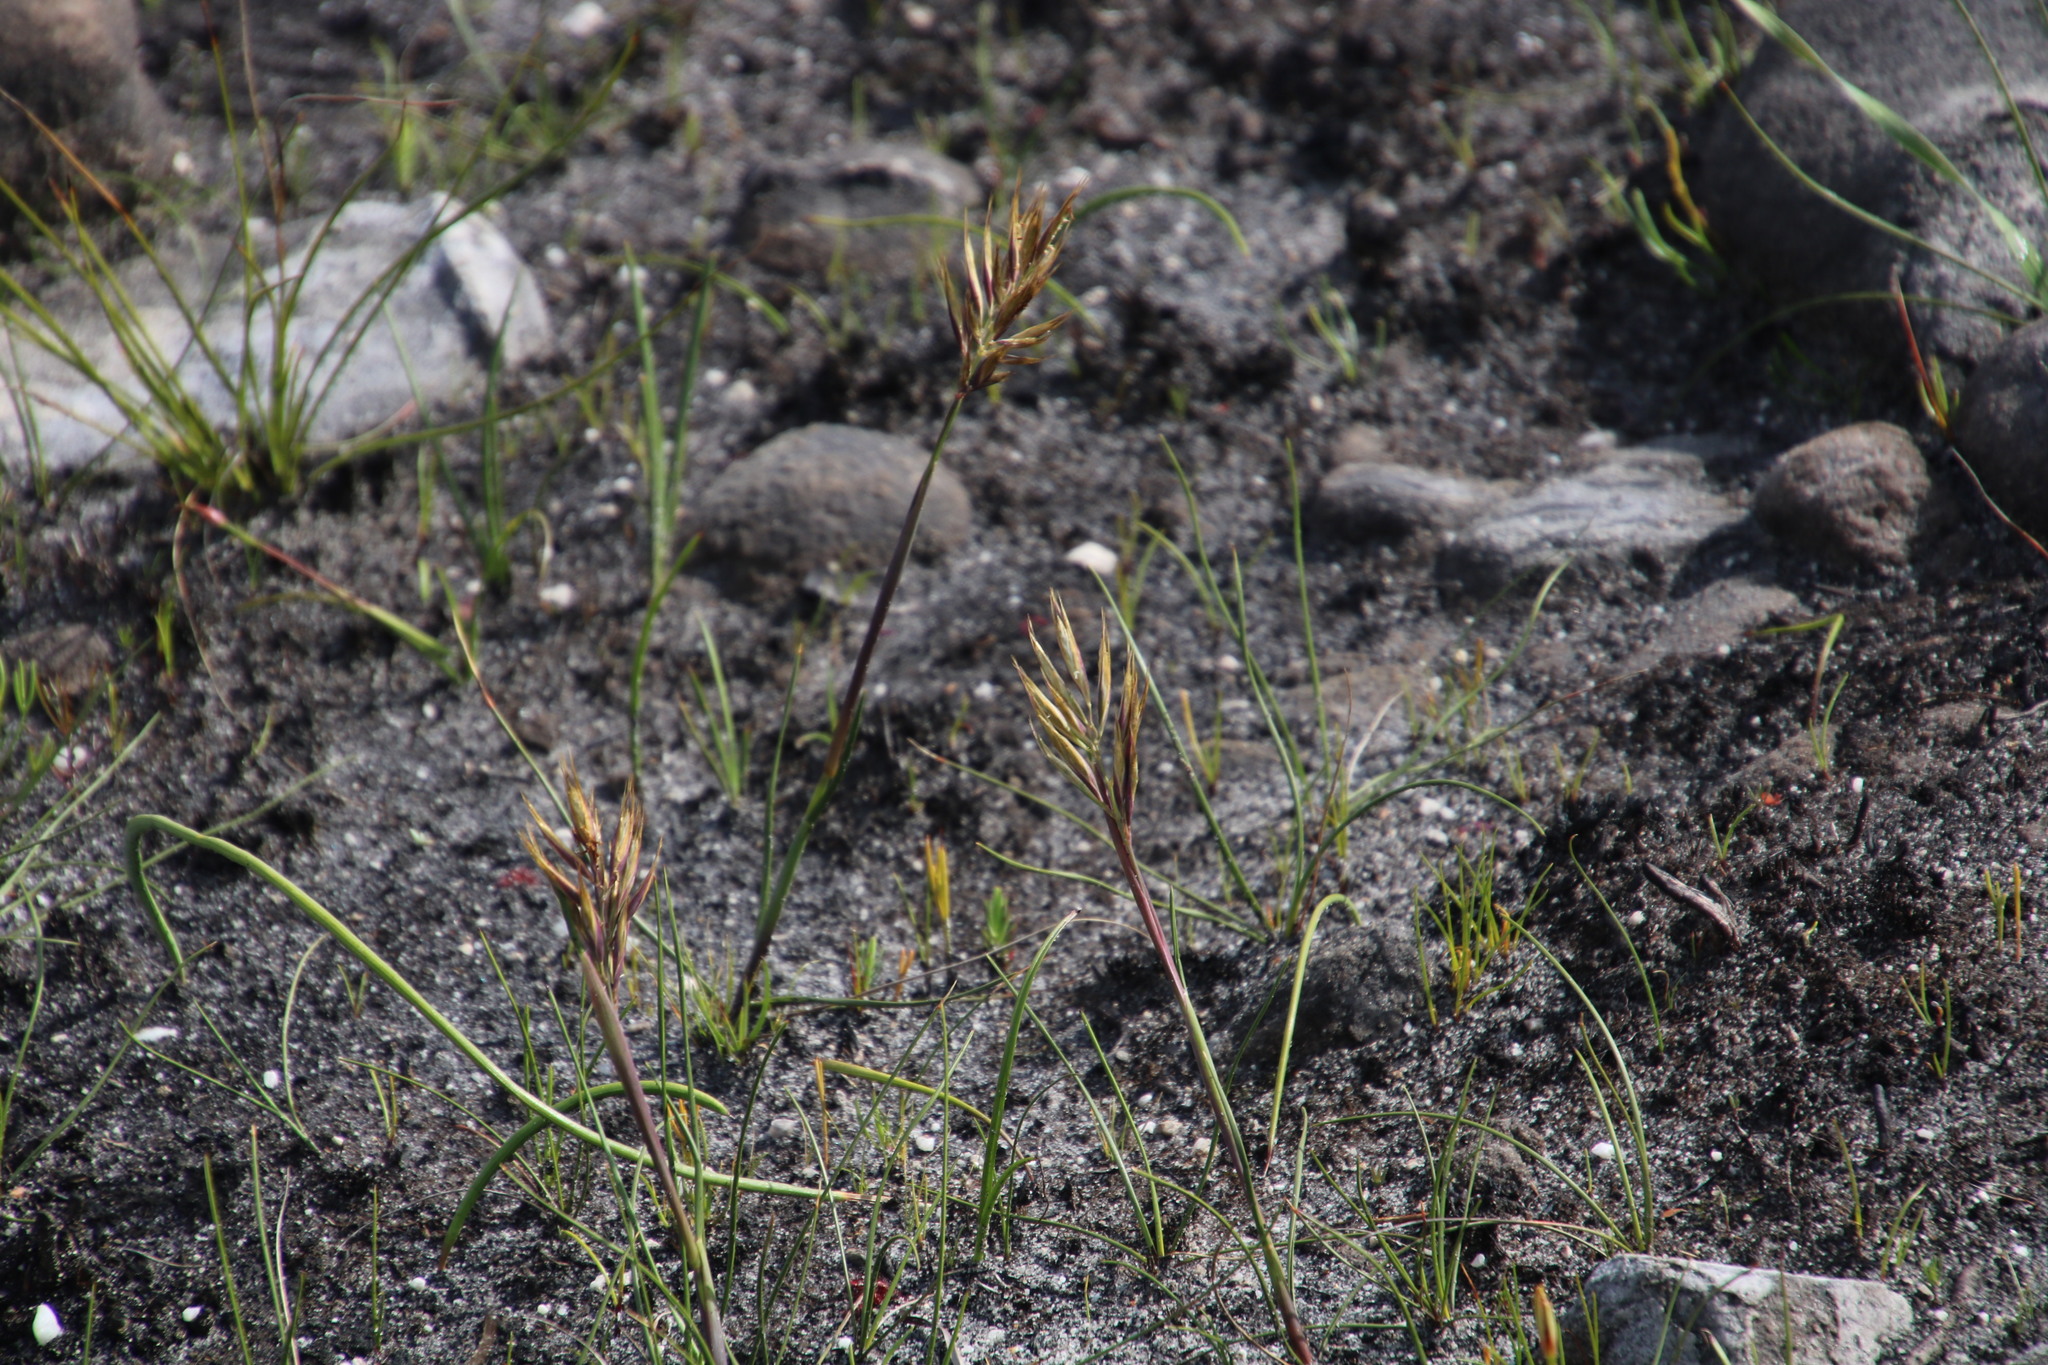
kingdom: Plantae
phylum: Tracheophyta
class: Liliopsida
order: Poales
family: Poaceae
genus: Geochloa
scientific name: Geochloa rufa
